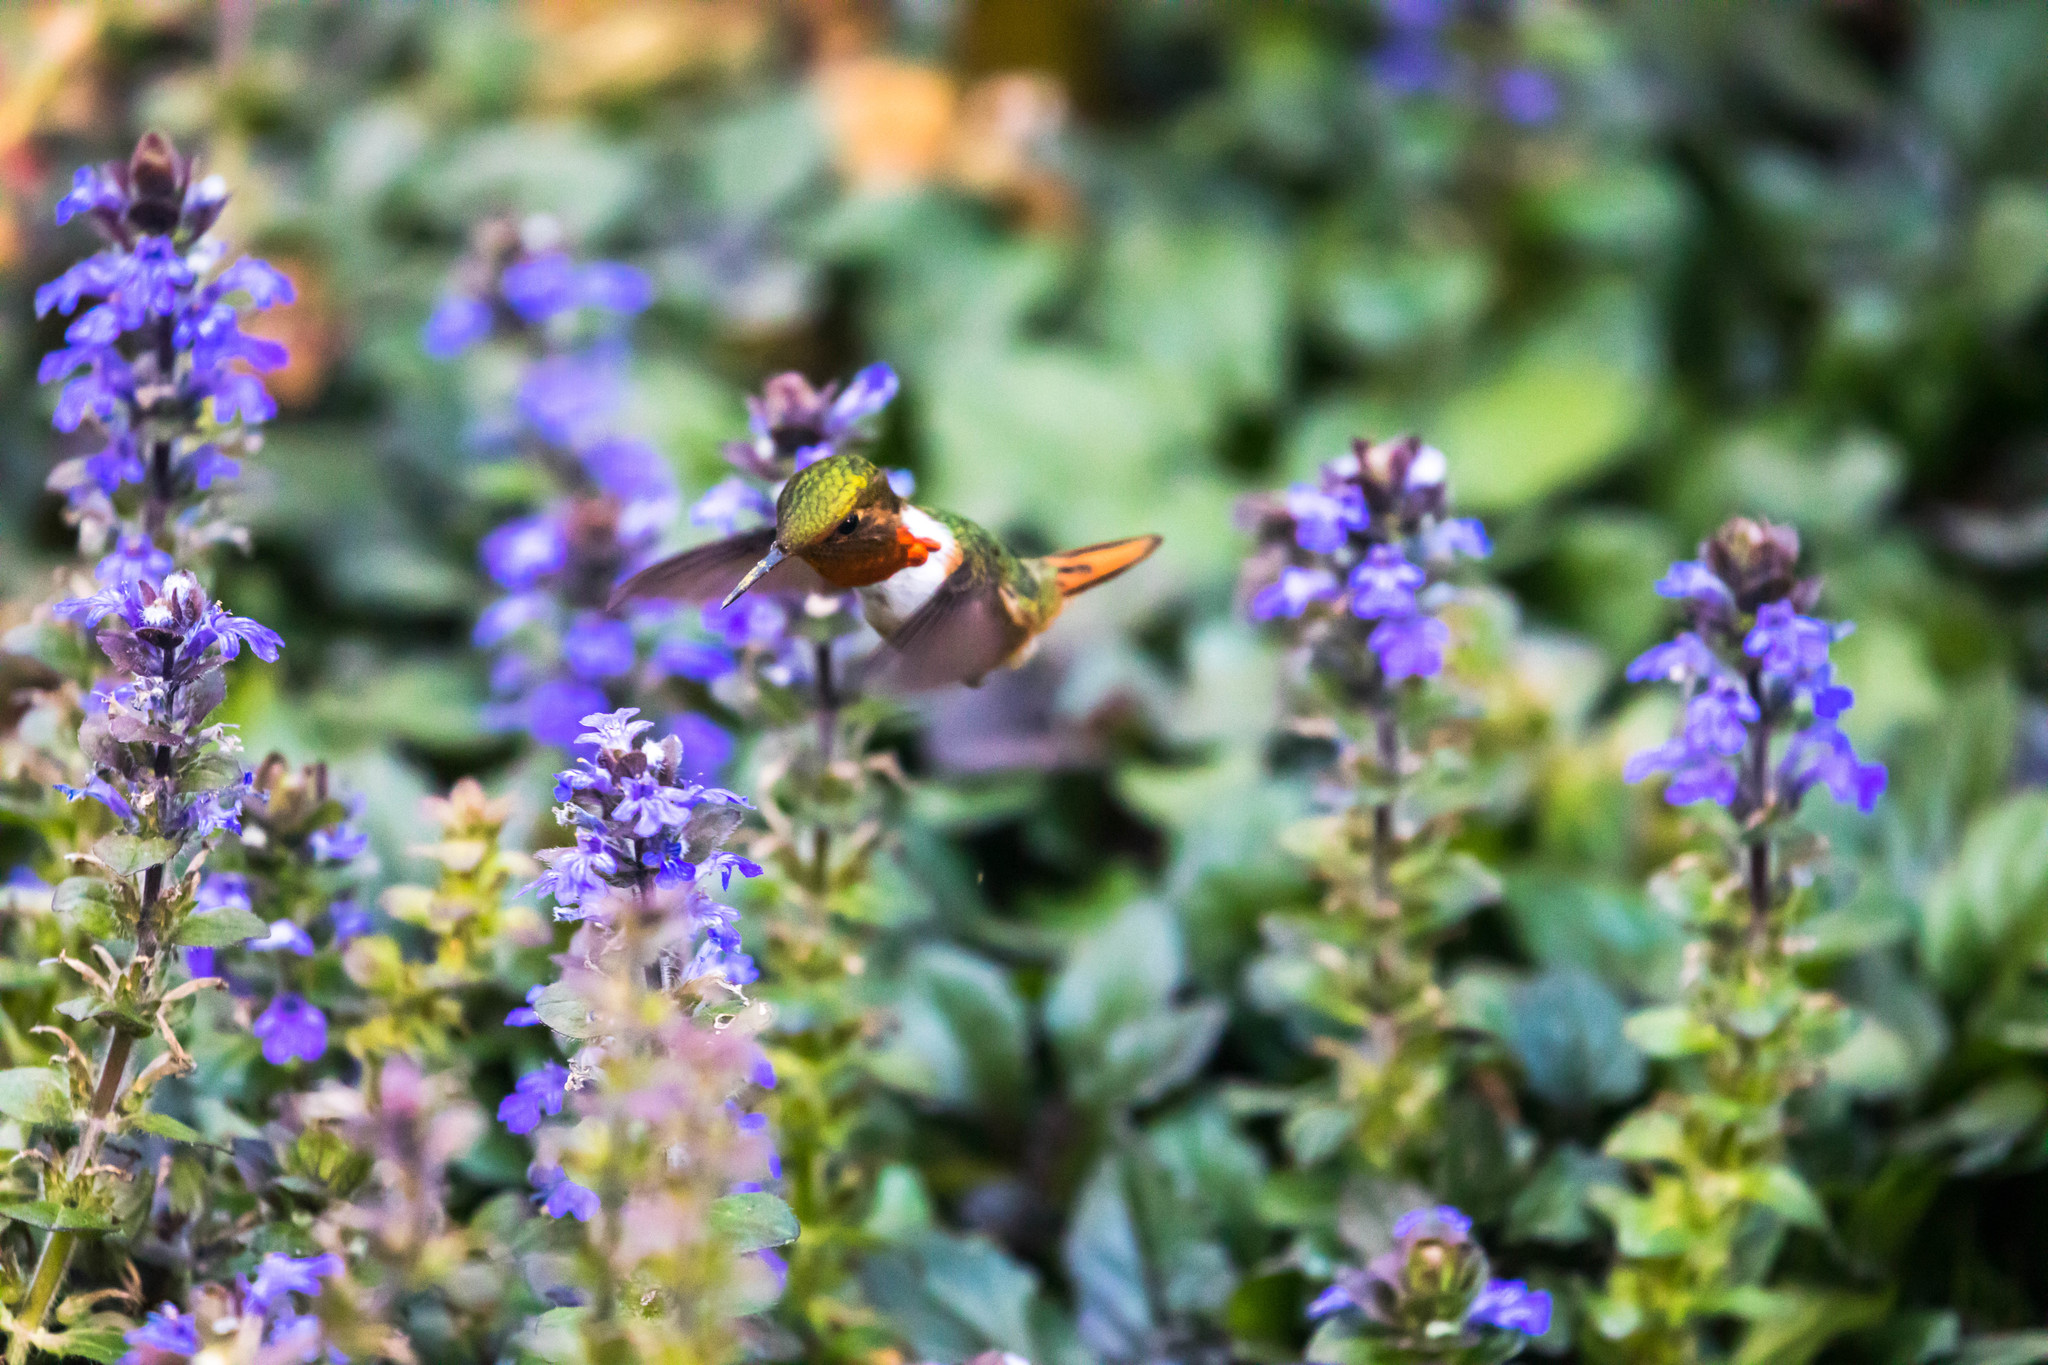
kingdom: Animalia
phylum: Chordata
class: Aves
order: Apodiformes
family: Trochilidae
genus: Selasphorus
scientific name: Selasphorus scintilla
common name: Scintillant hummingbird
